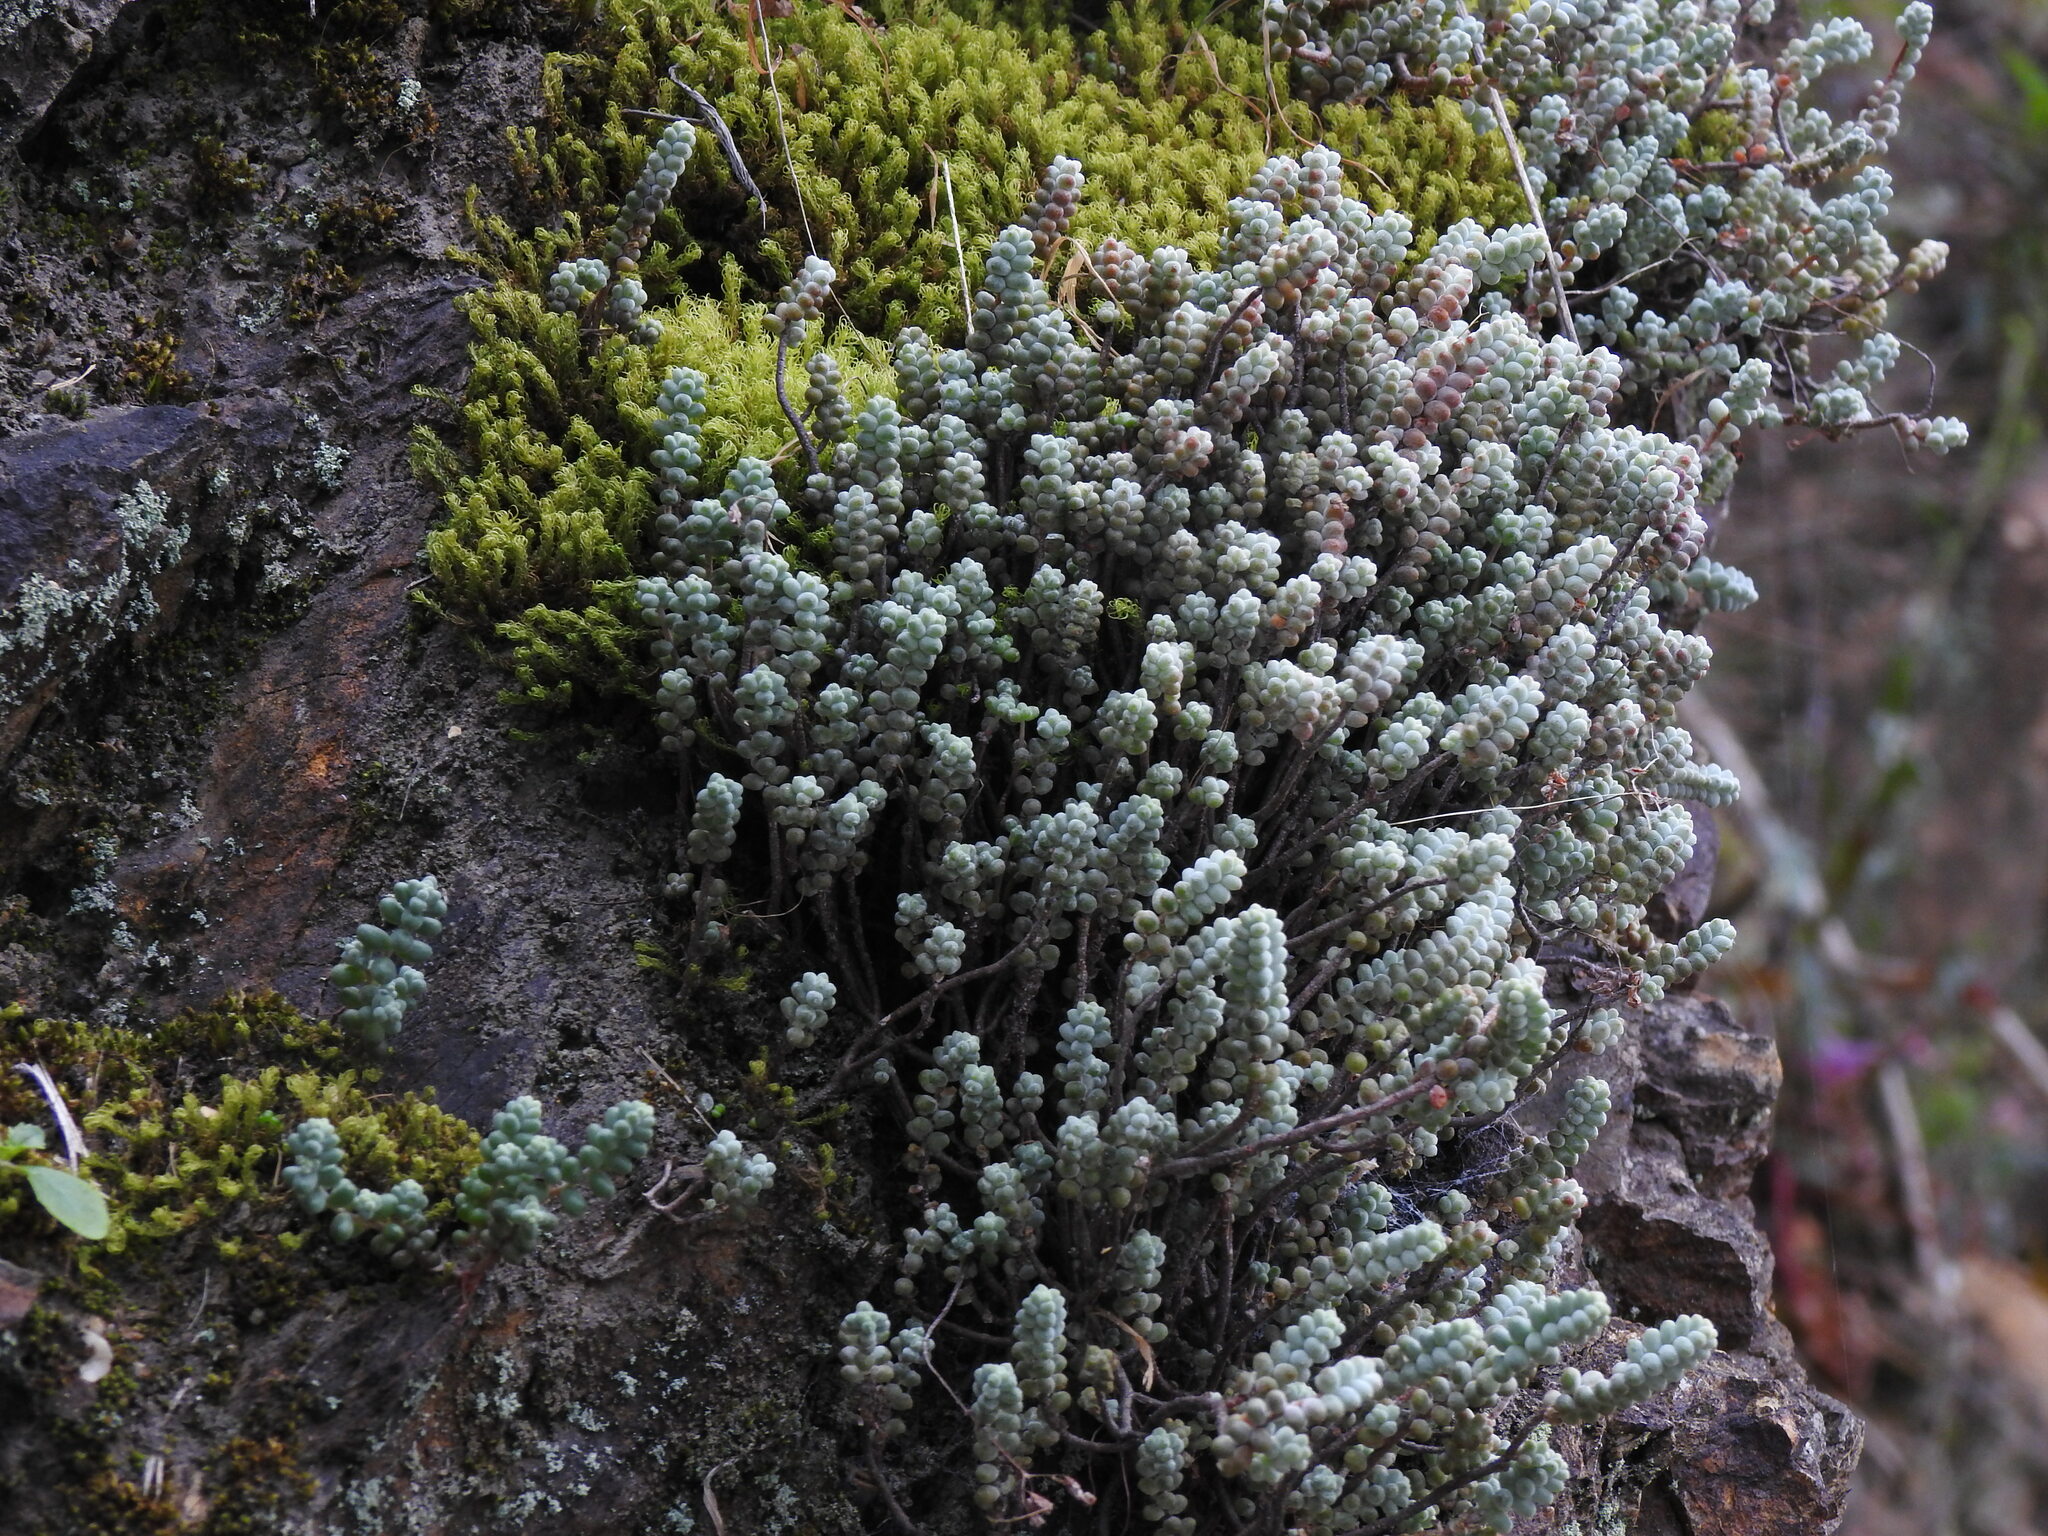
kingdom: Plantae
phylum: Tracheophyta
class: Magnoliopsida
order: Saxifragales
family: Crassulaceae
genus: Sedum
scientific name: Sedum brevifolium
